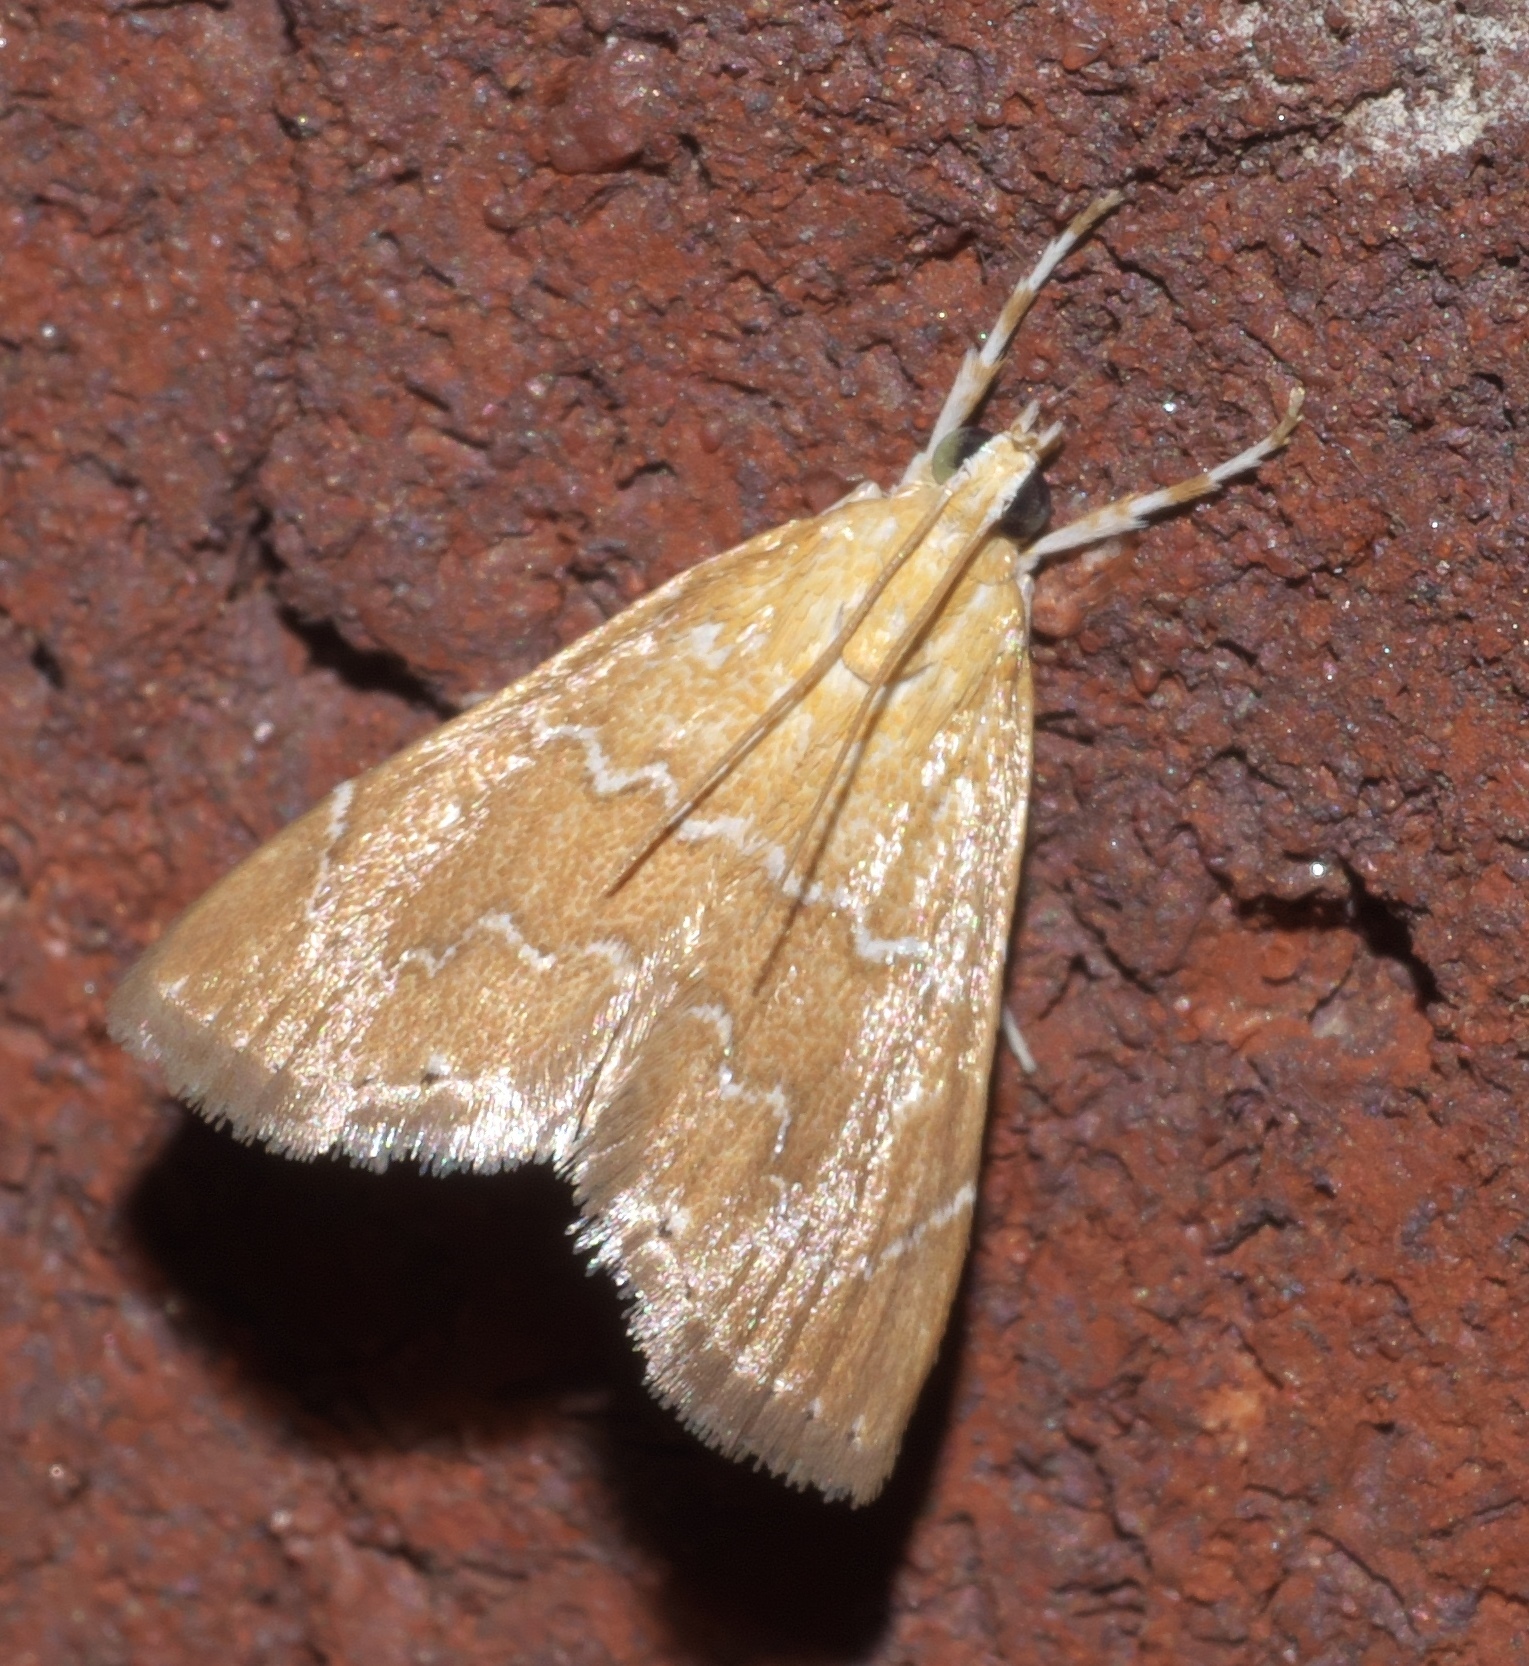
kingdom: Animalia
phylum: Arthropoda
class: Insecta
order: Lepidoptera
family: Crambidae
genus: Glaphyria
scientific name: Glaphyria sesquistrialis
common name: White-roped glaphyria
